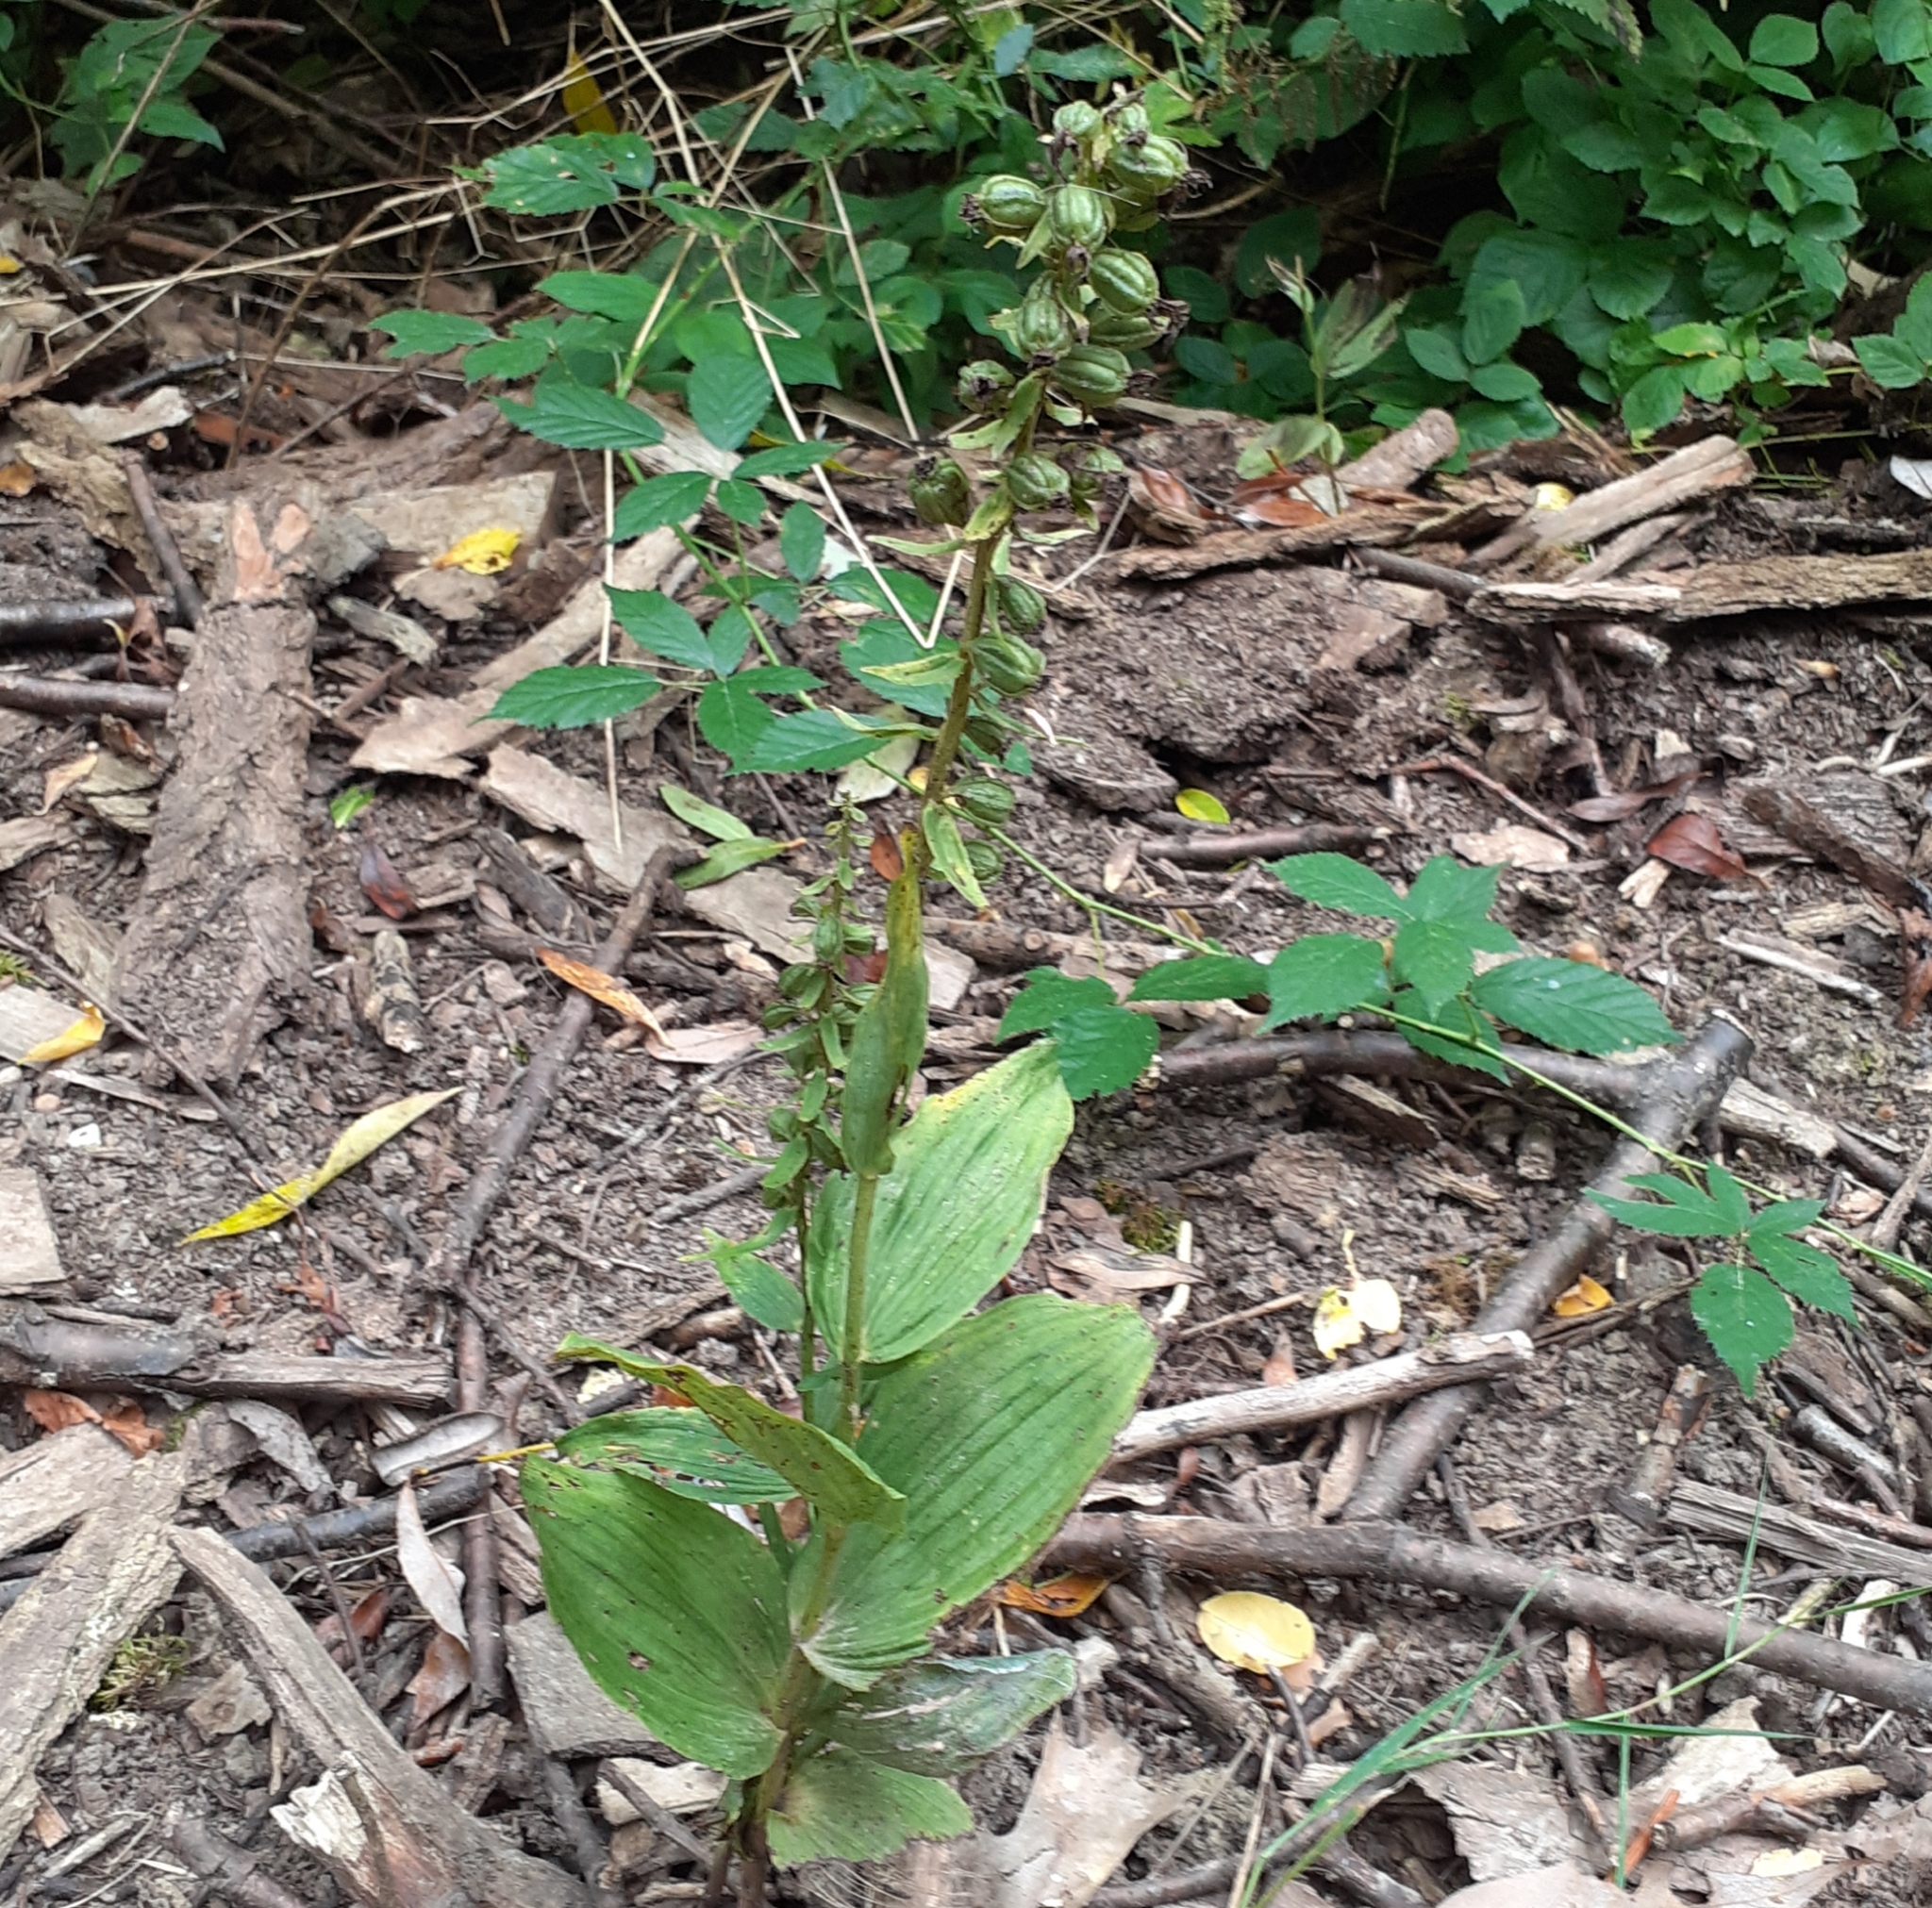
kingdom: Plantae
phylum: Tracheophyta
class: Liliopsida
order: Asparagales
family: Orchidaceae
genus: Epipactis
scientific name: Epipactis helleborine
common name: Broad-leaved helleborine
